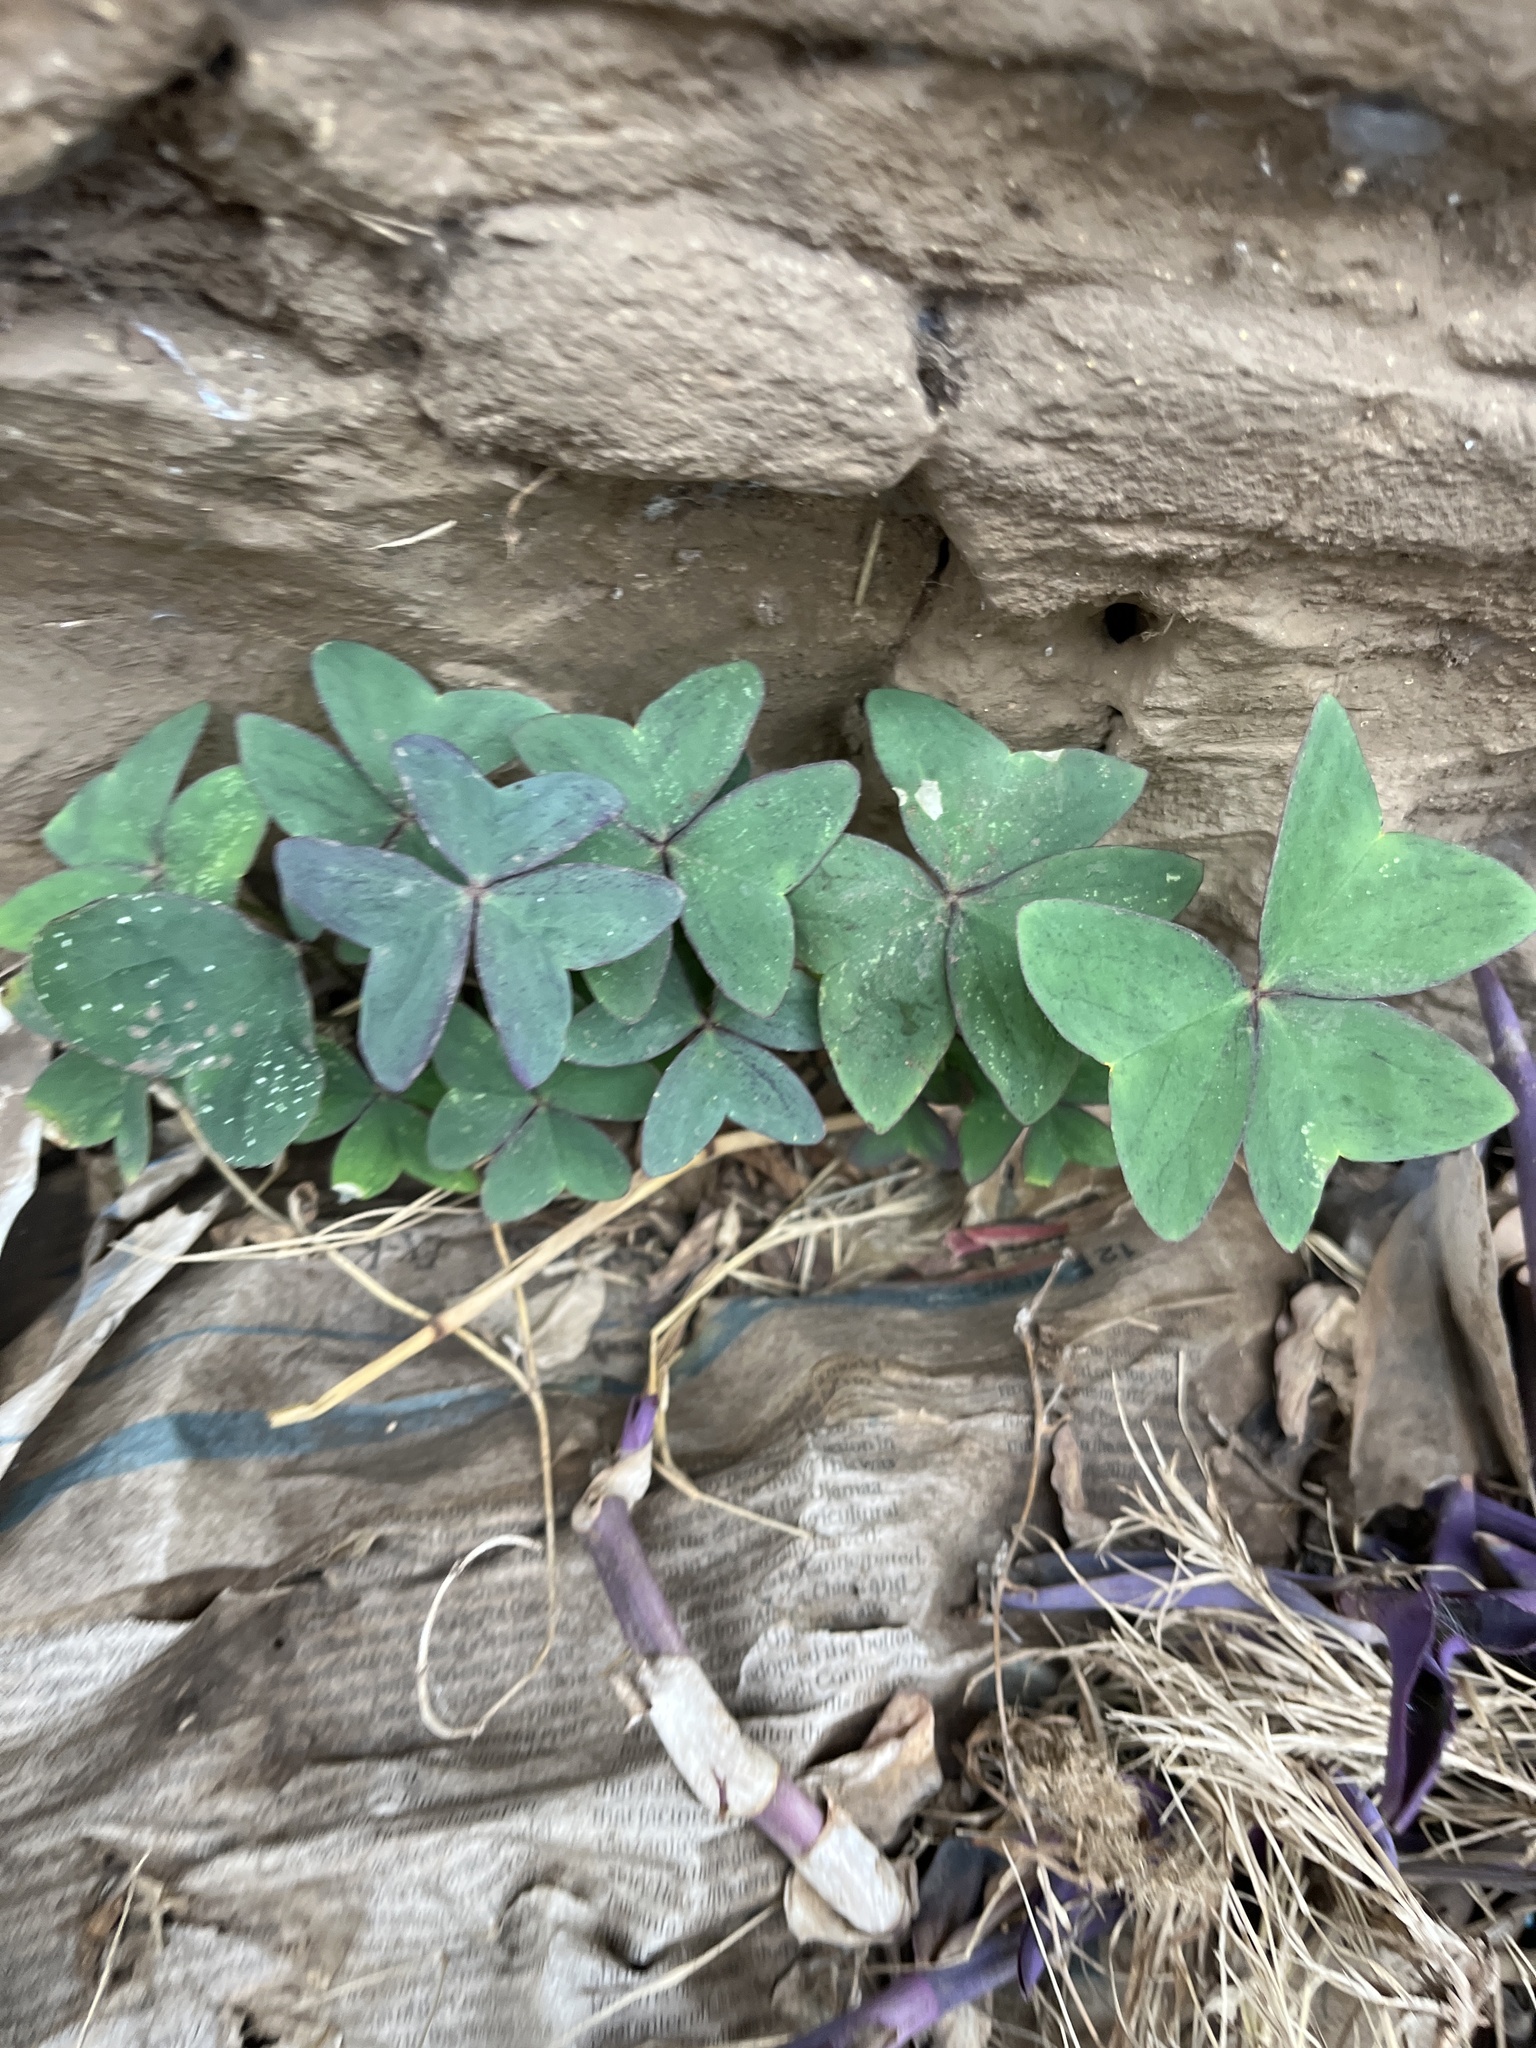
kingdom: Plantae
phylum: Tracheophyta
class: Magnoliopsida
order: Oxalidales
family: Oxalidaceae
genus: Oxalis
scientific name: Oxalis latifolia
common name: Garden pink-sorrel
